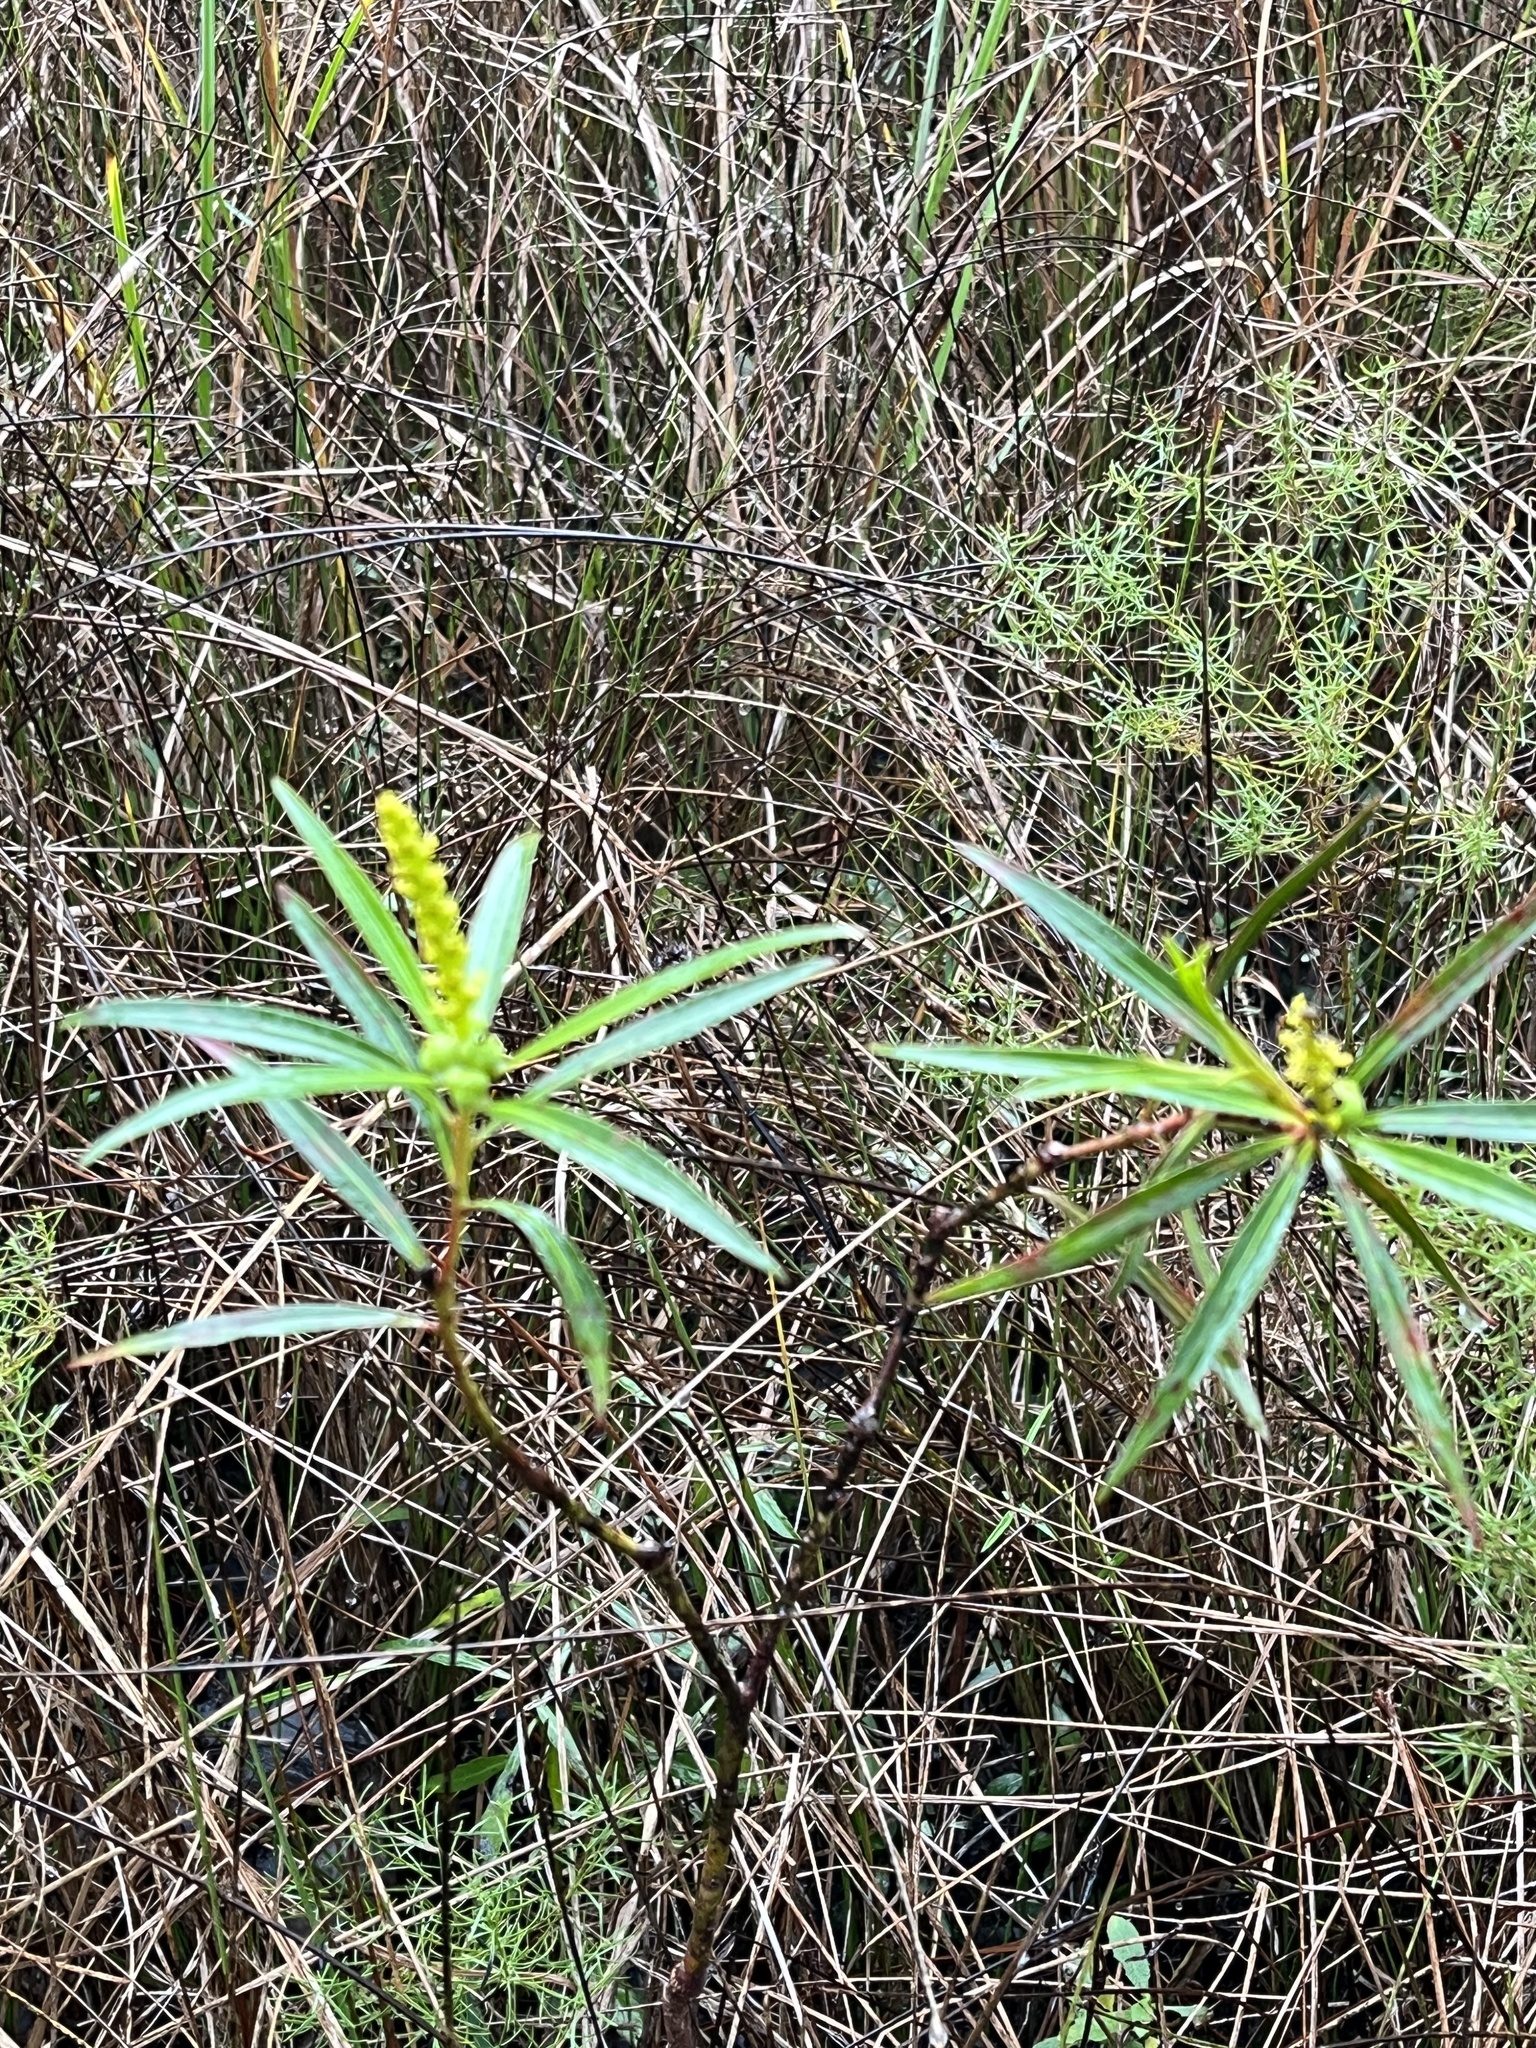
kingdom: Plantae
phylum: Tracheophyta
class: Magnoliopsida
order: Malpighiales
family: Euphorbiaceae
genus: Stillingia
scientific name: Stillingia aquatica
